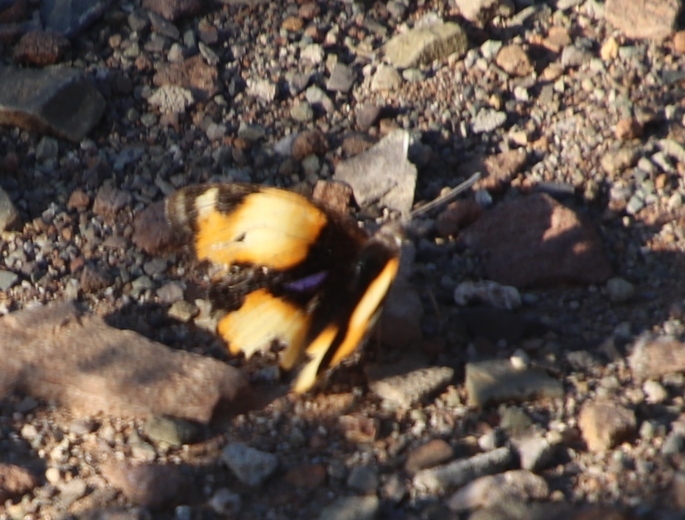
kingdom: Animalia
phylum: Arthropoda
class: Insecta
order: Lepidoptera
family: Nymphalidae
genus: Junonia
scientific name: Junonia hierta
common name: Yellow pansy
